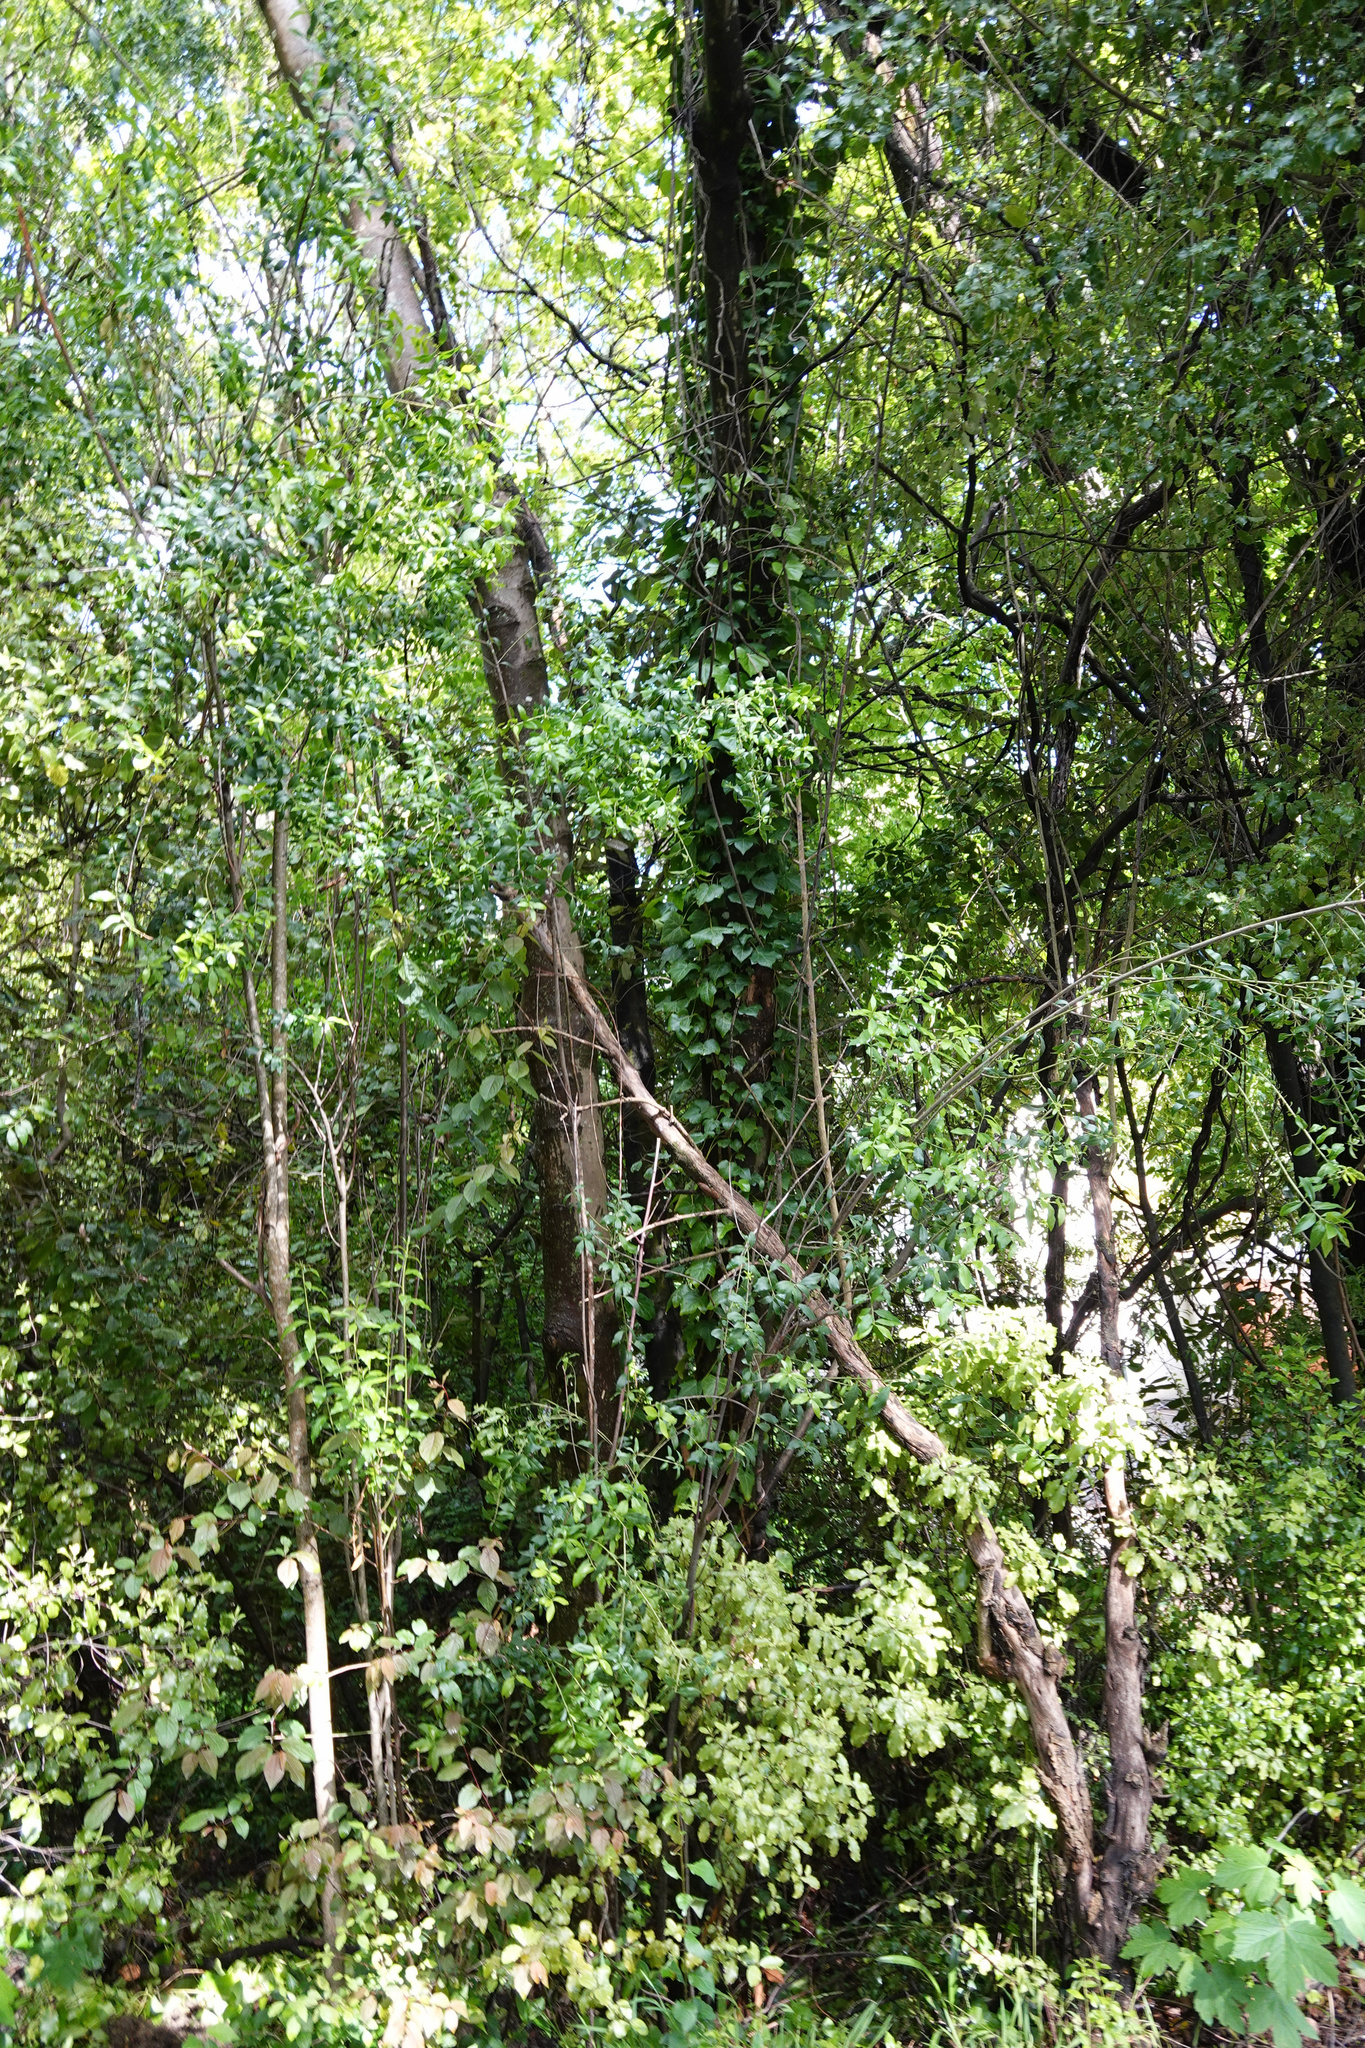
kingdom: Plantae
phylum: Tracheophyta
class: Magnoliopsida
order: Celastrales
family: Celastraceae
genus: Maytenus
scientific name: Maytenus boaria
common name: Mayten
